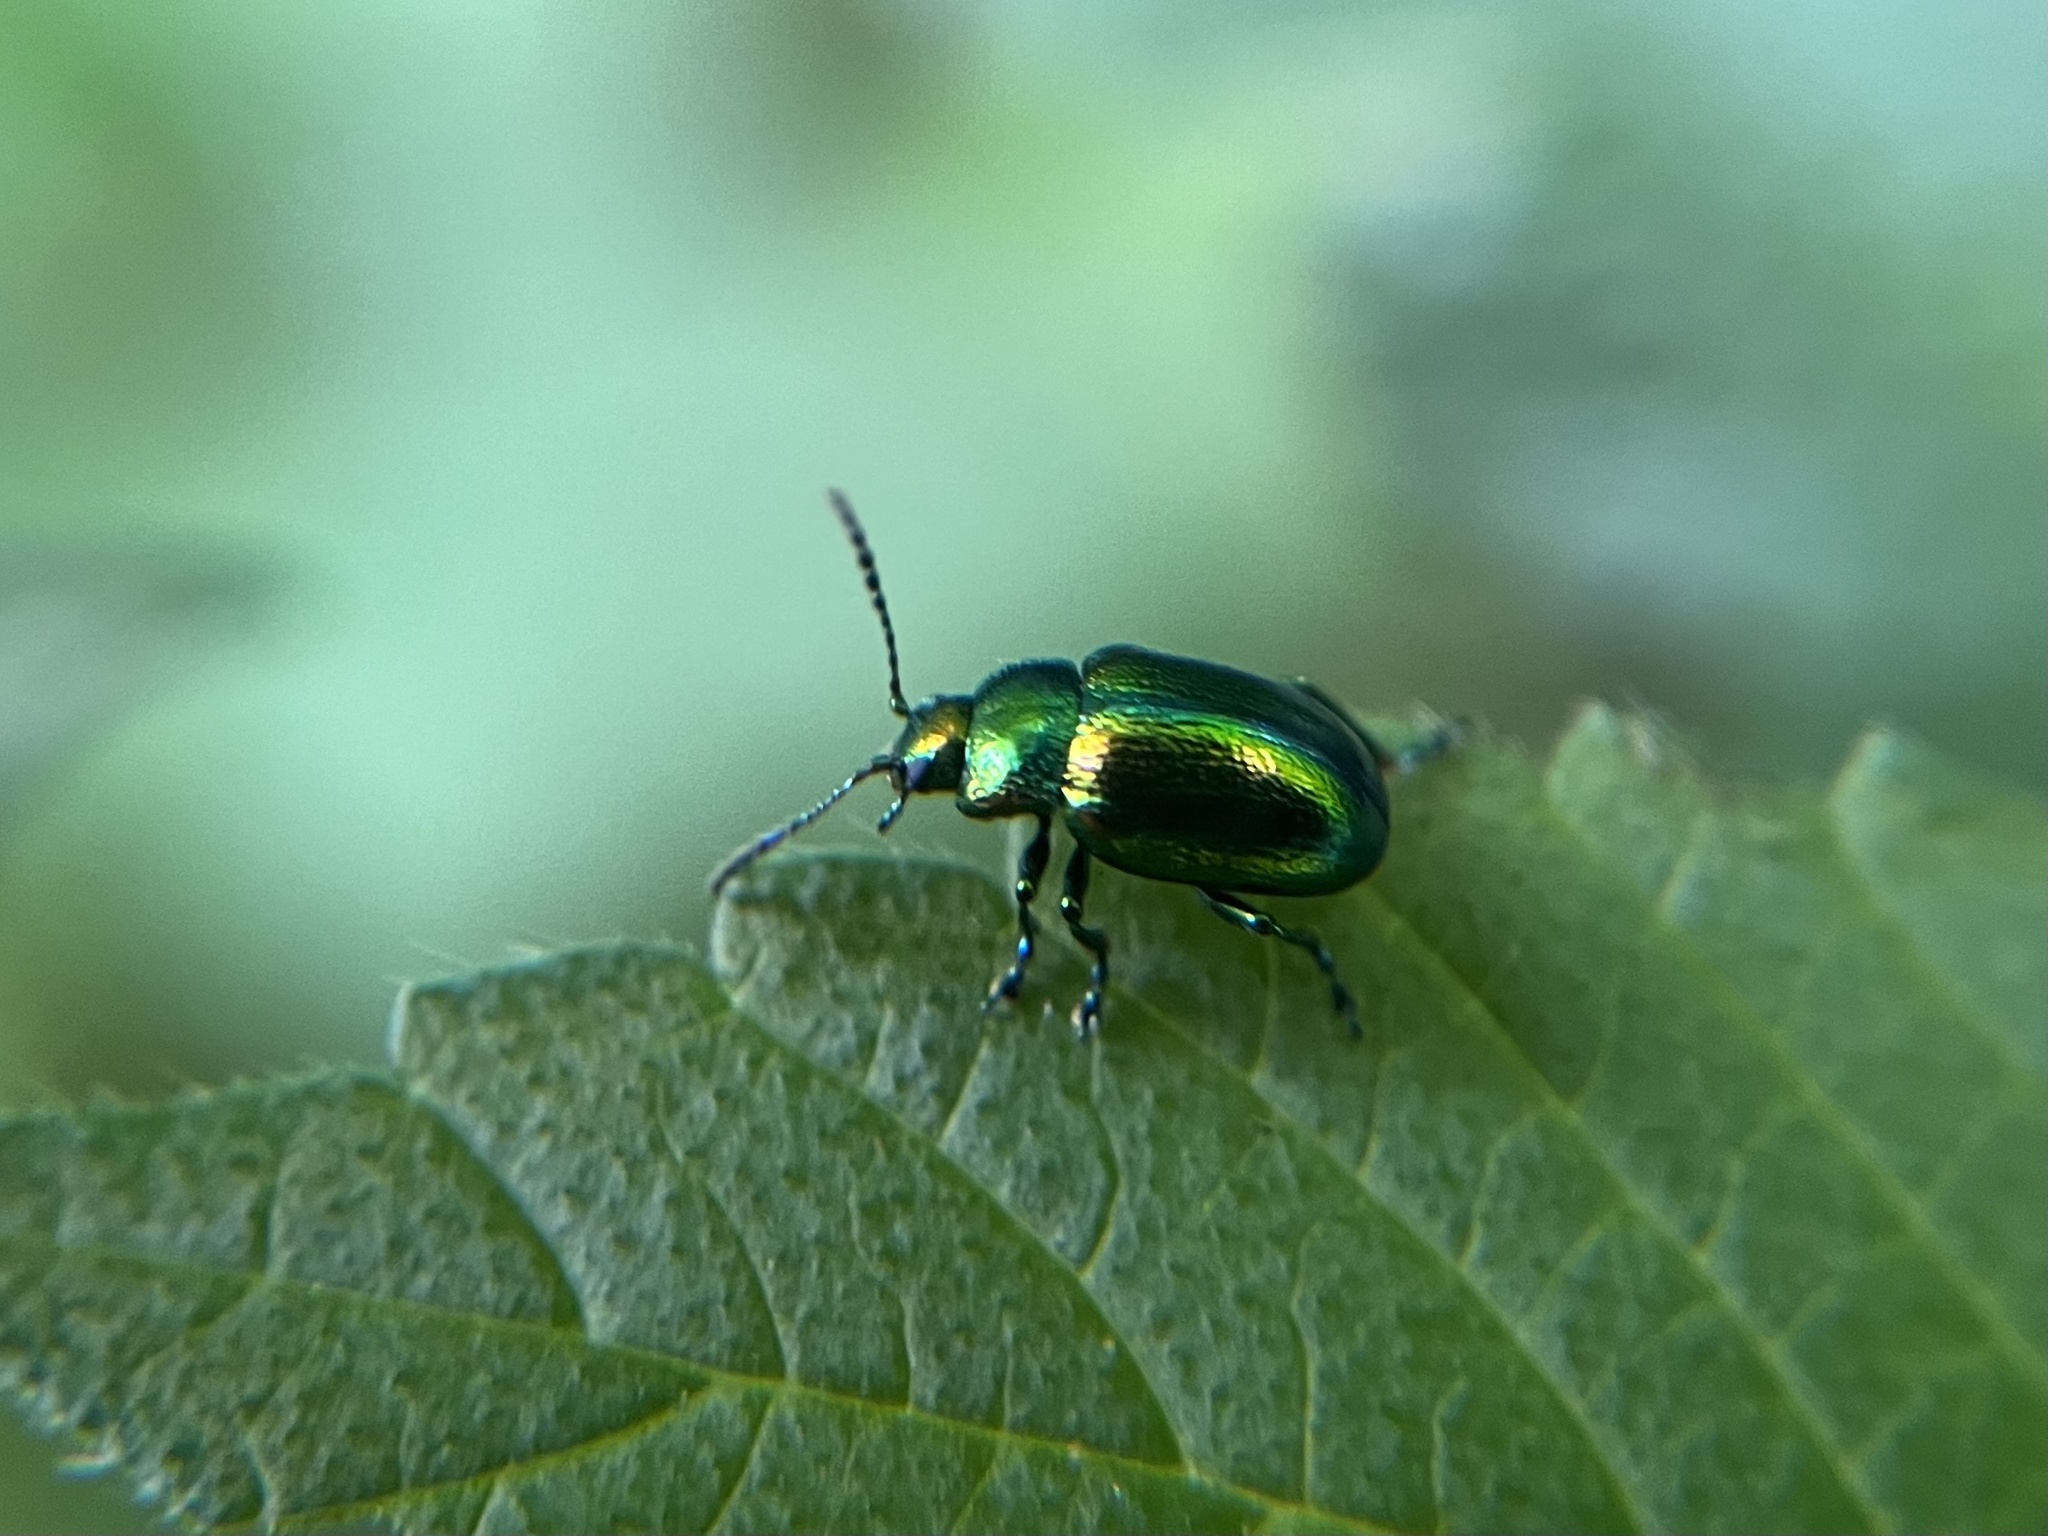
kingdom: Animalia
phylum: Arthropoda
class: Insecta
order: Coleoptera
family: Chrysomelidae
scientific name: Chrysomelidae
